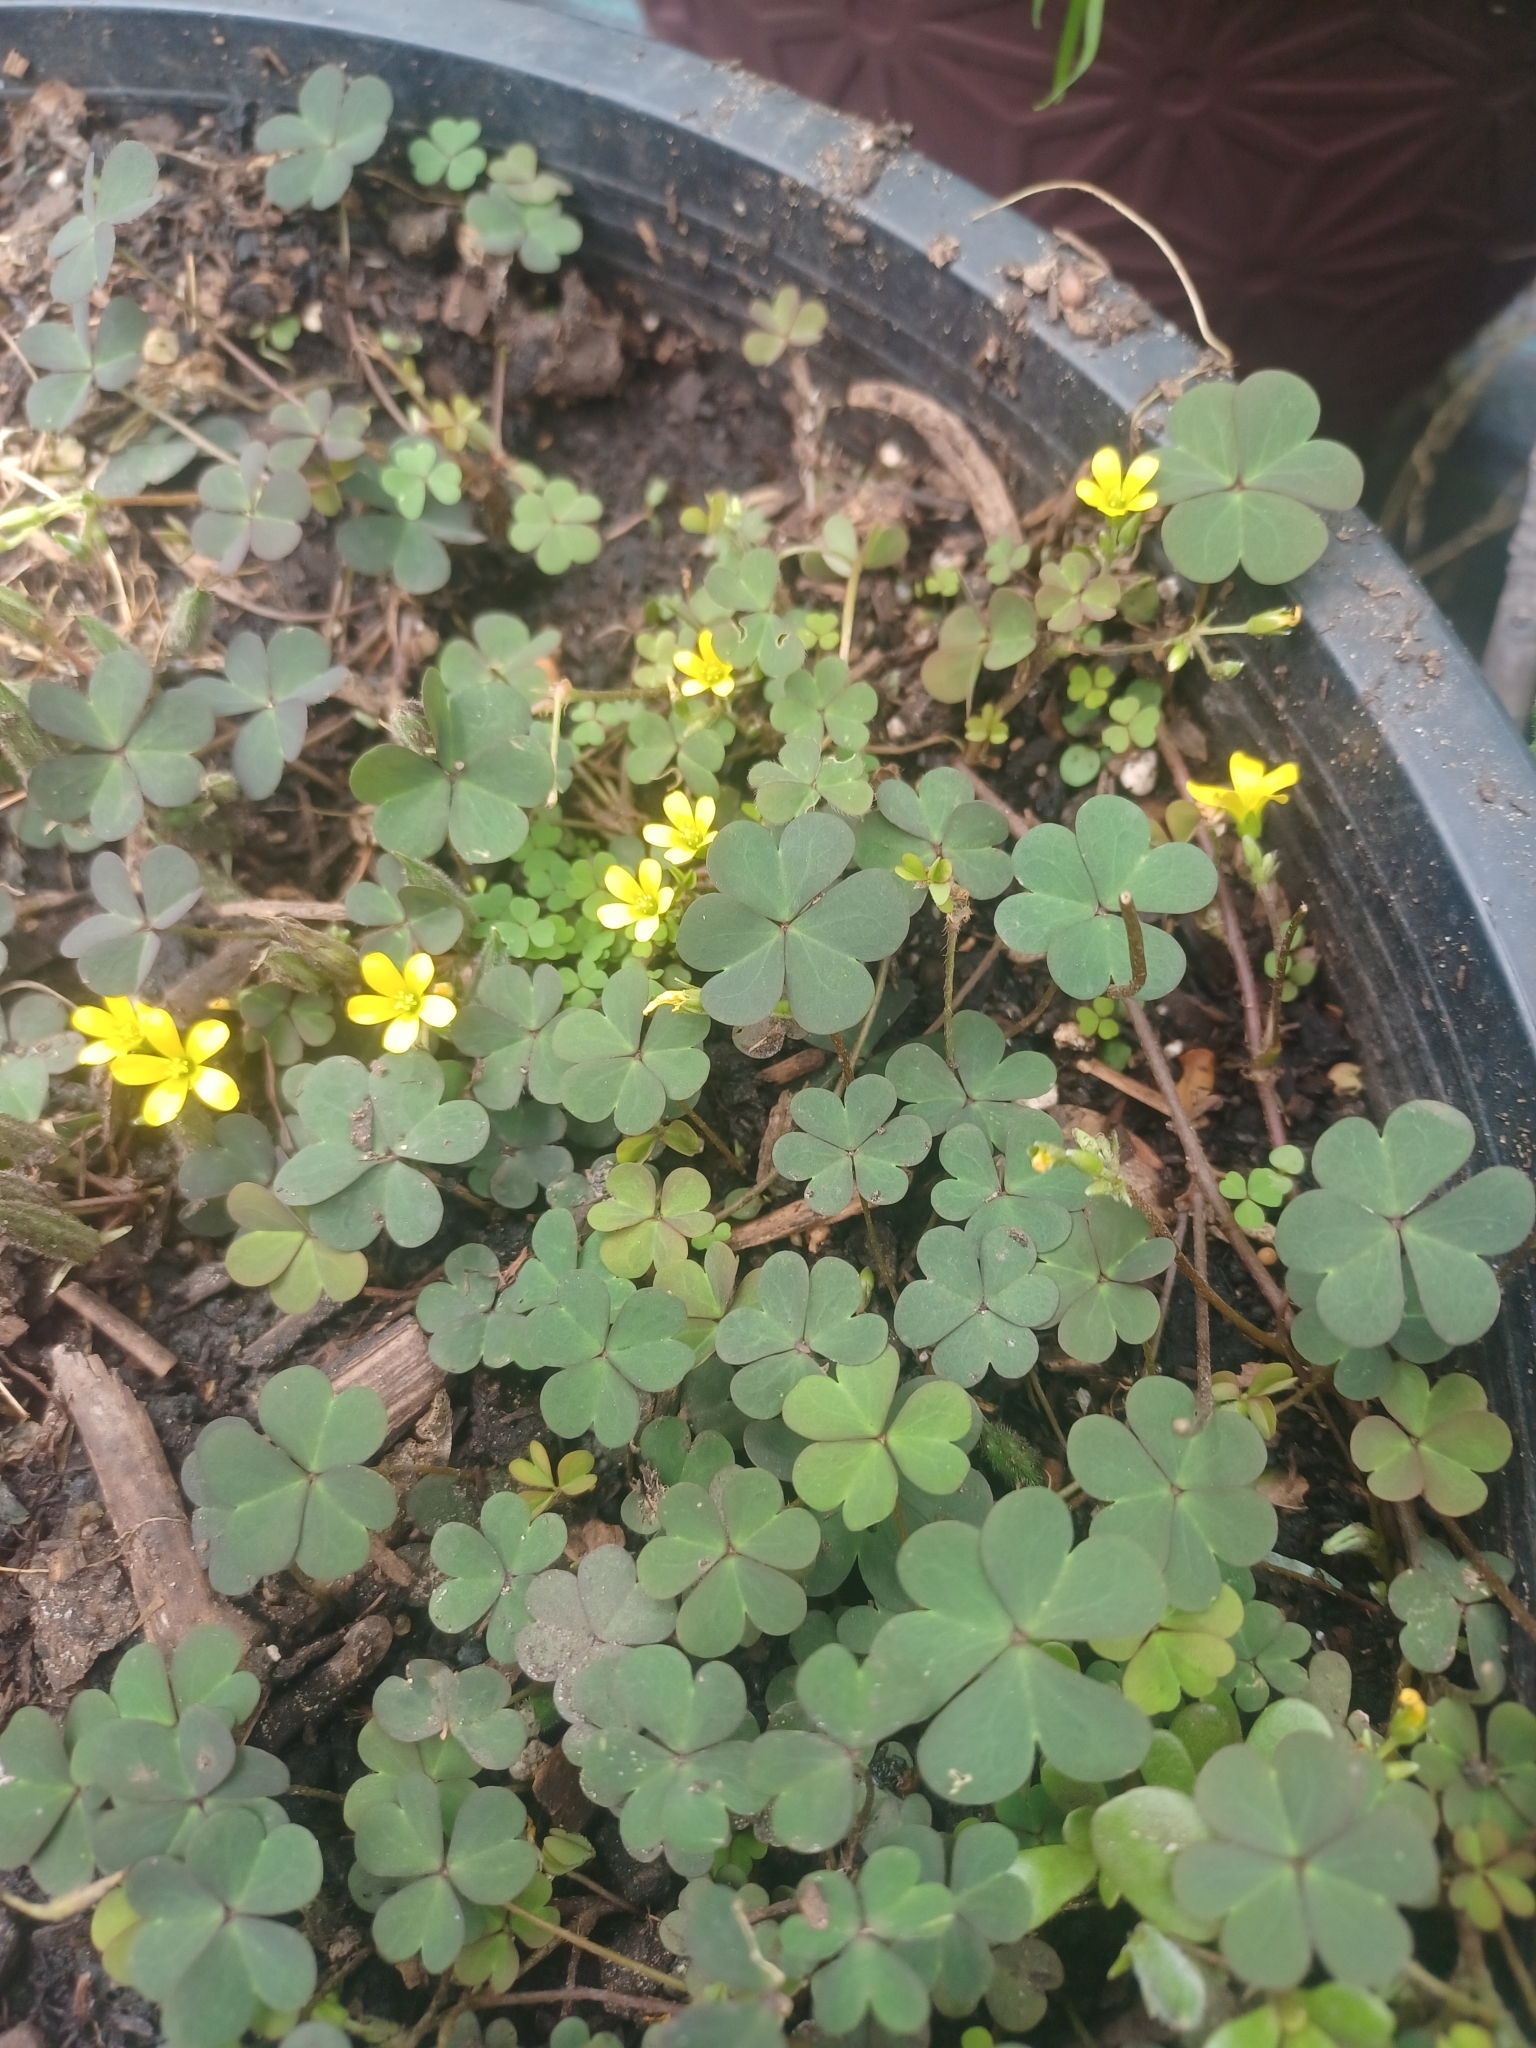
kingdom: Plantae
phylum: Tracheophyta
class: Magnoliopsida
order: Oxalidales
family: Oxalidaceae
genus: Oxalis
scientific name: Oxalis corniculata
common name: Procumbent yellow-sorrel
